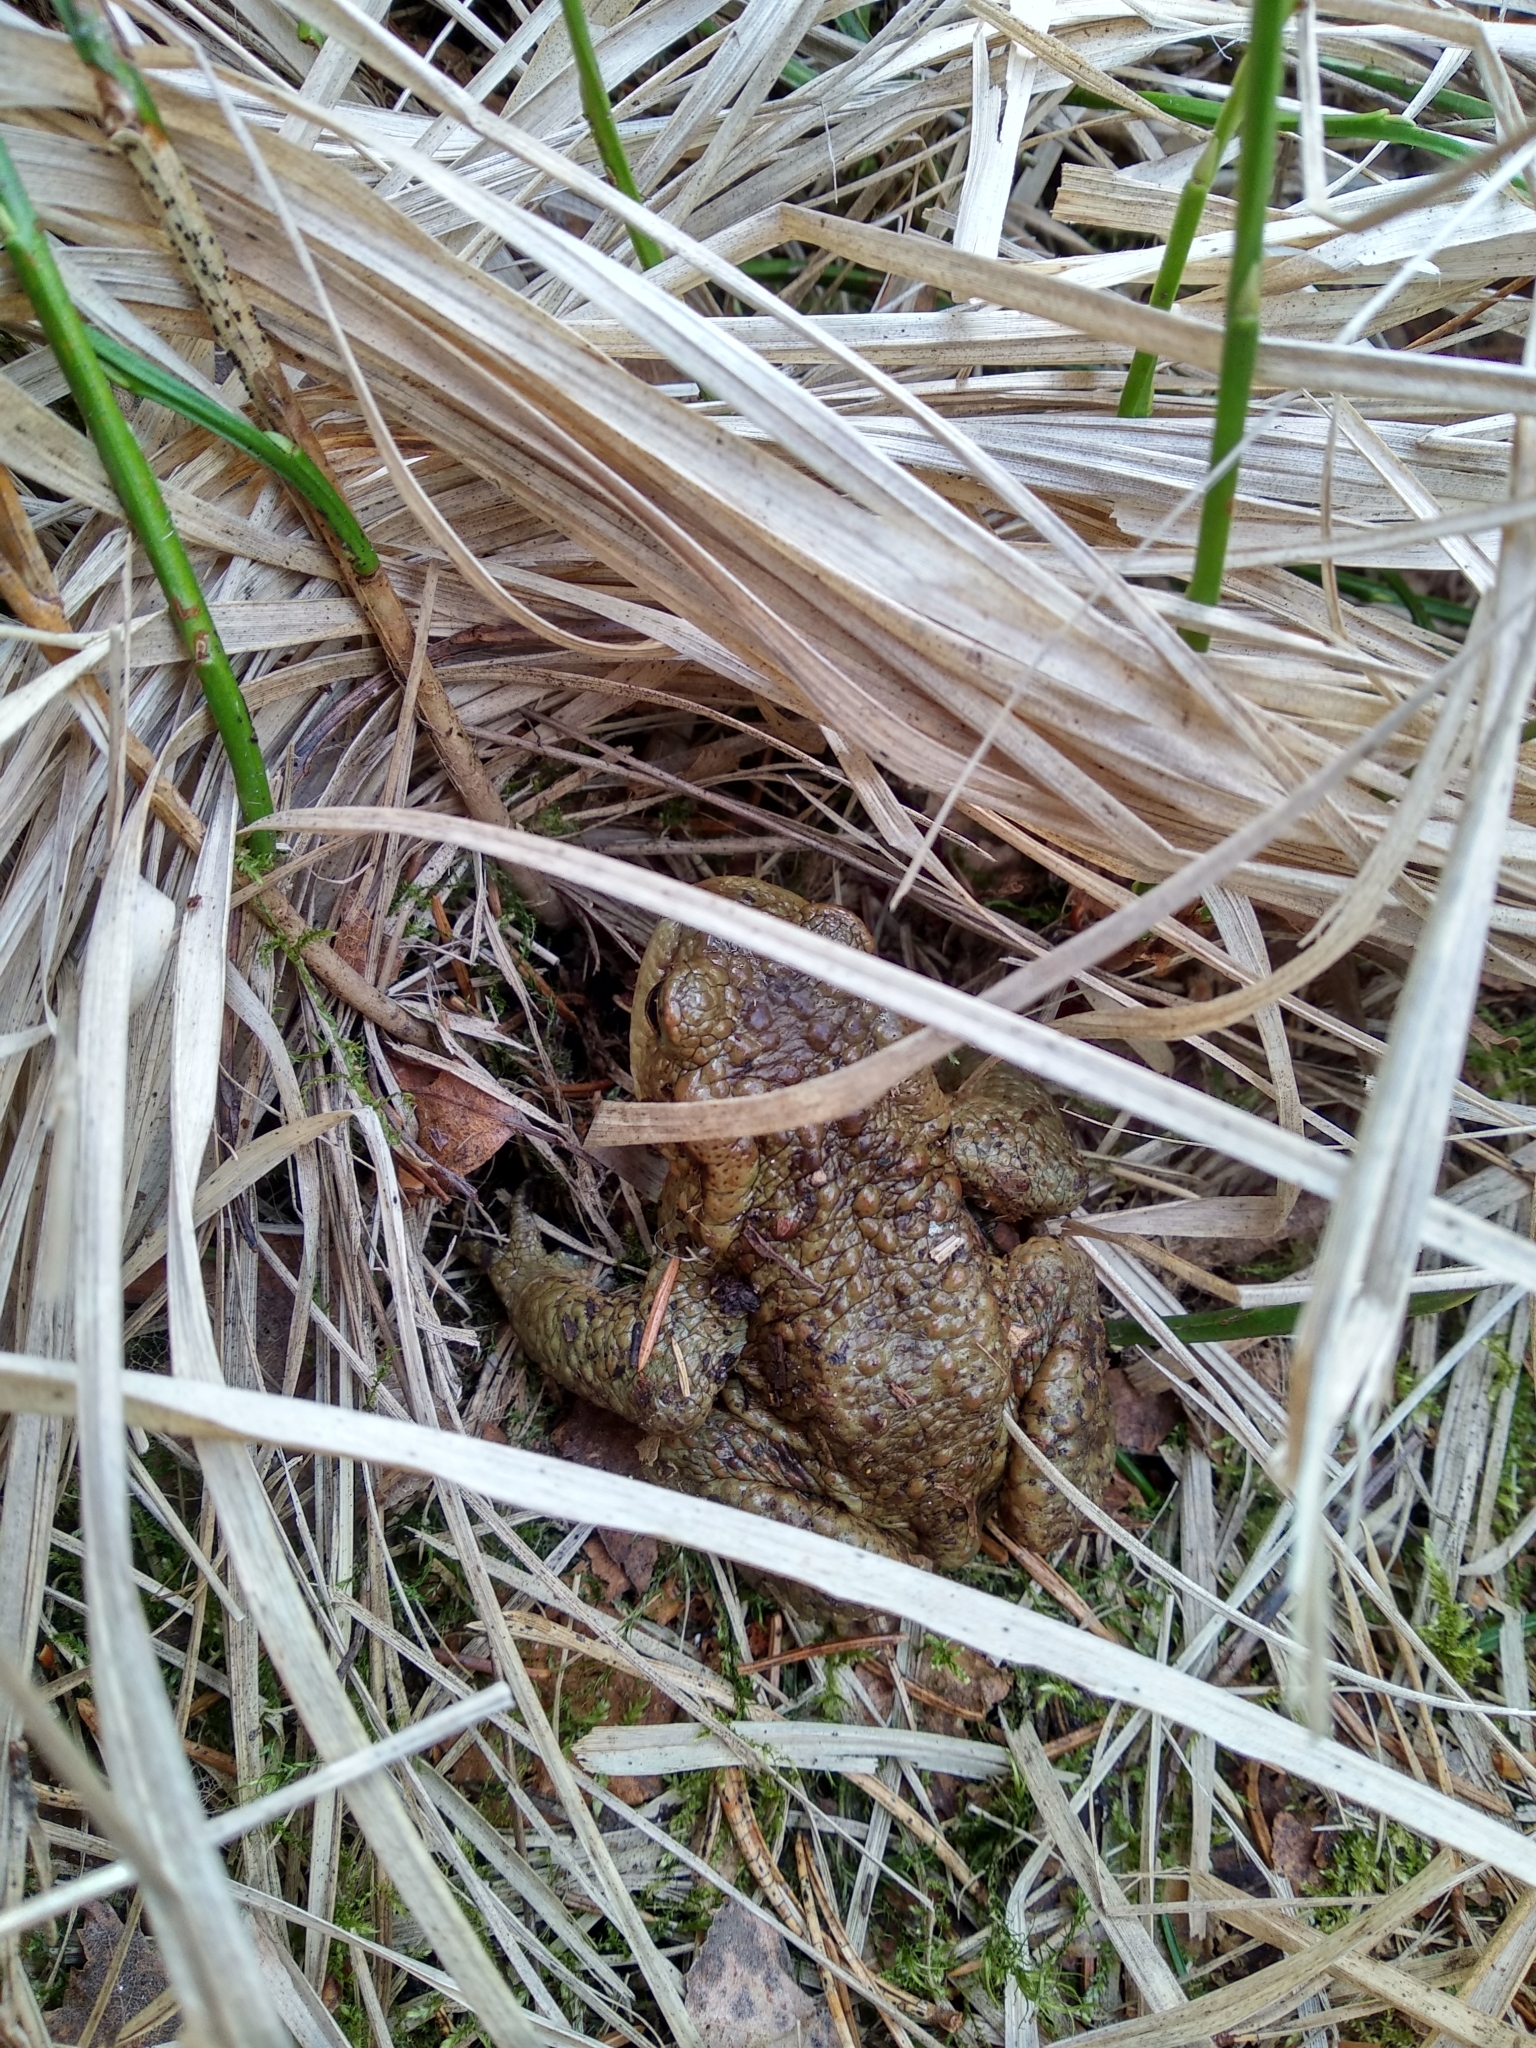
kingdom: Animalia
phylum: Chordata
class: Amphibia
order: Anura
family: Bufonidae
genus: Bufo
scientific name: Bufo bufo
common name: Common toad
